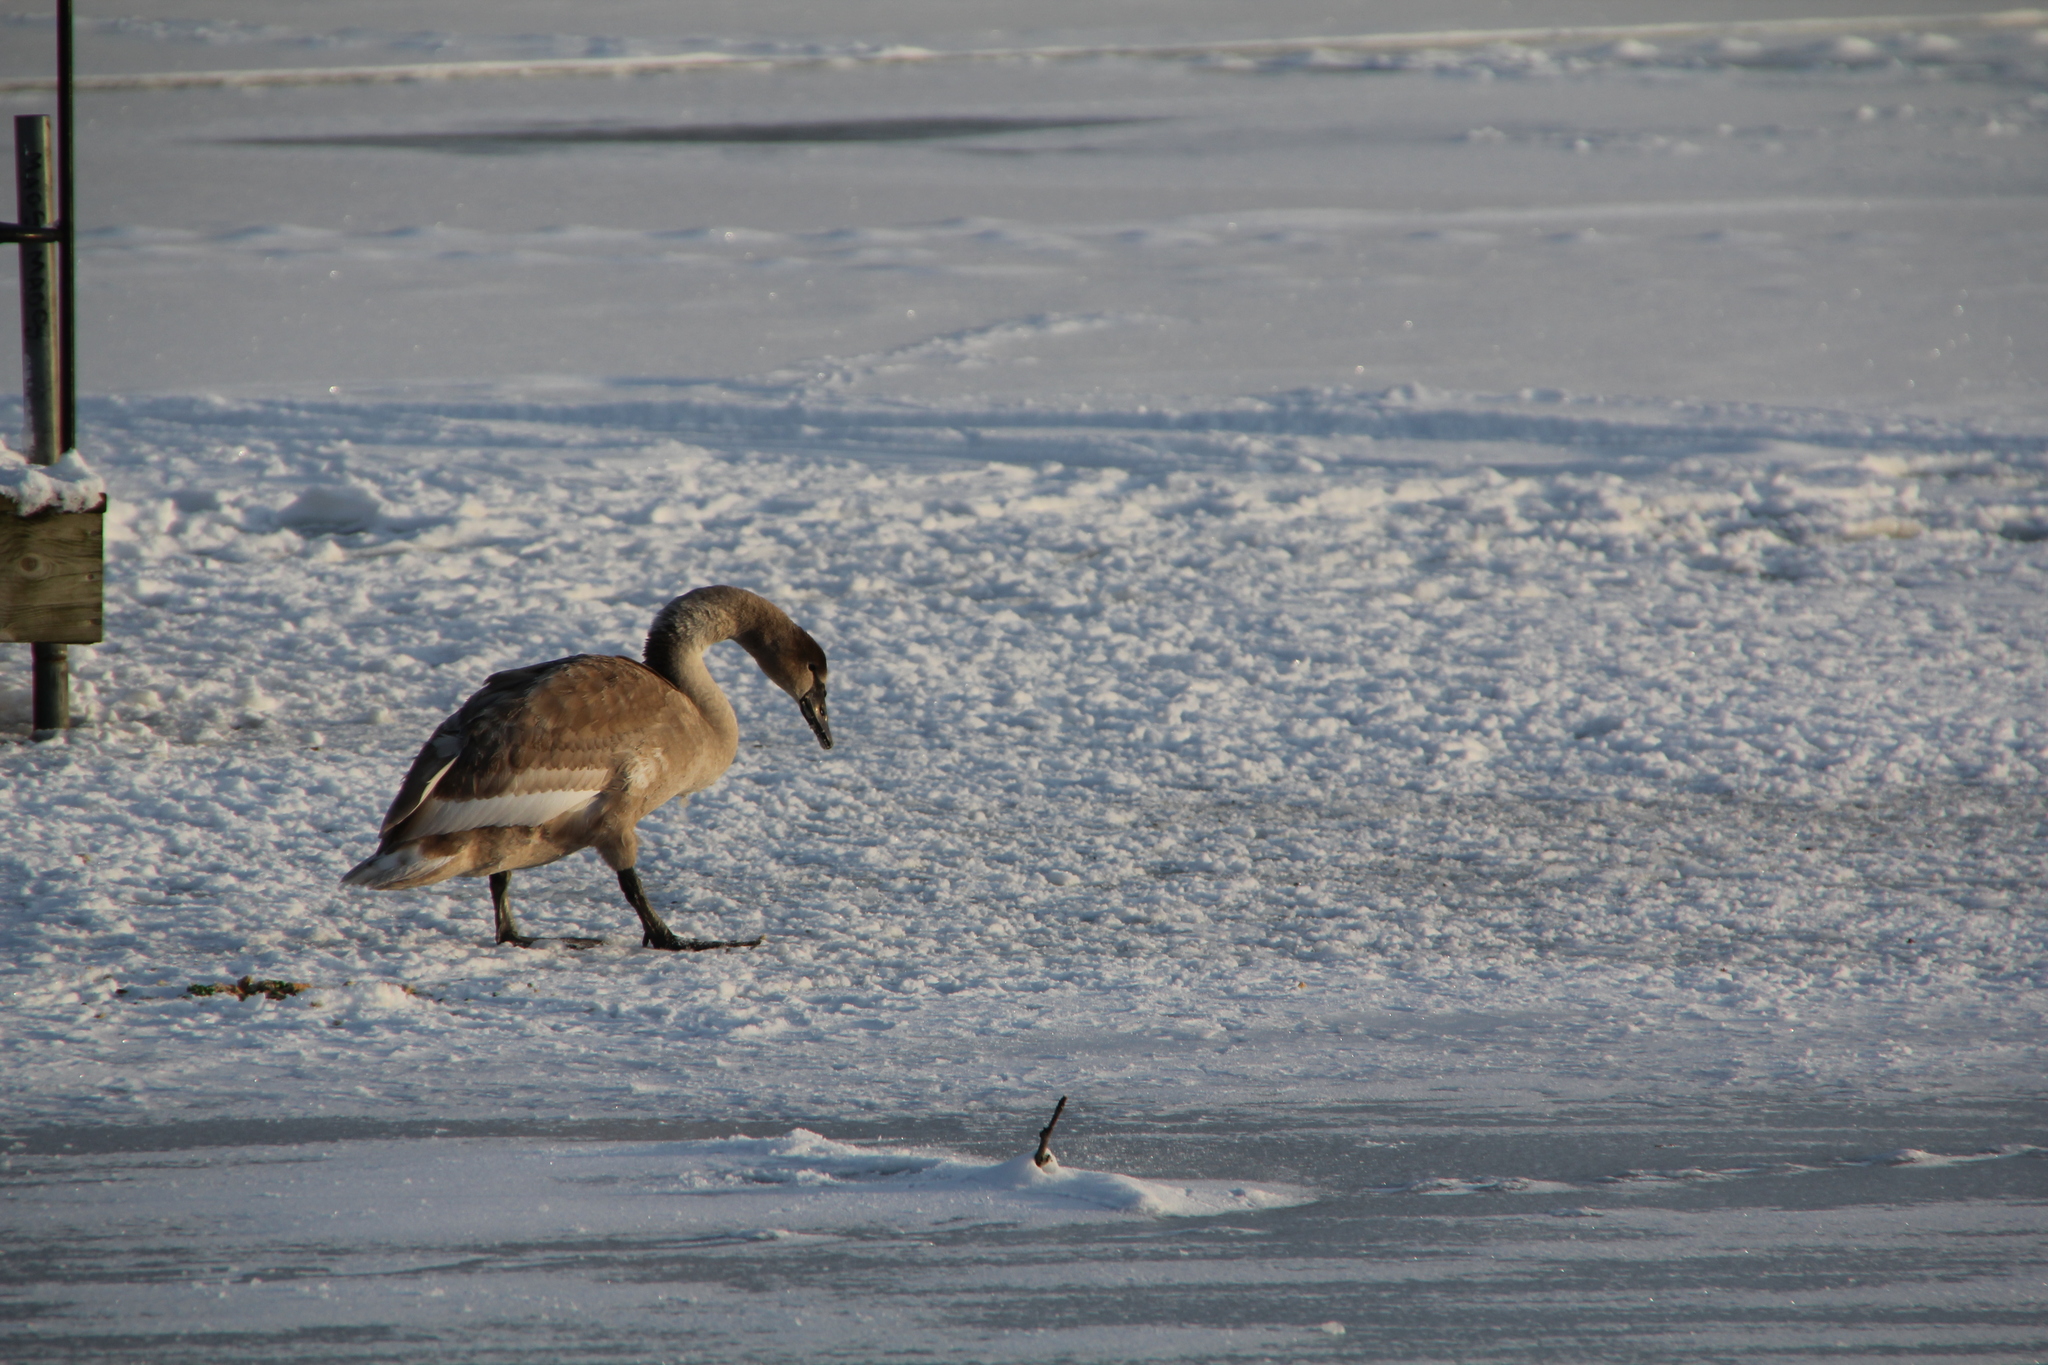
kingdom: Animalia
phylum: Chordata
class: Aves
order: Anseriformes
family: Anatidae
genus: Cygnus
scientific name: Cygnus olor
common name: Mute swan
